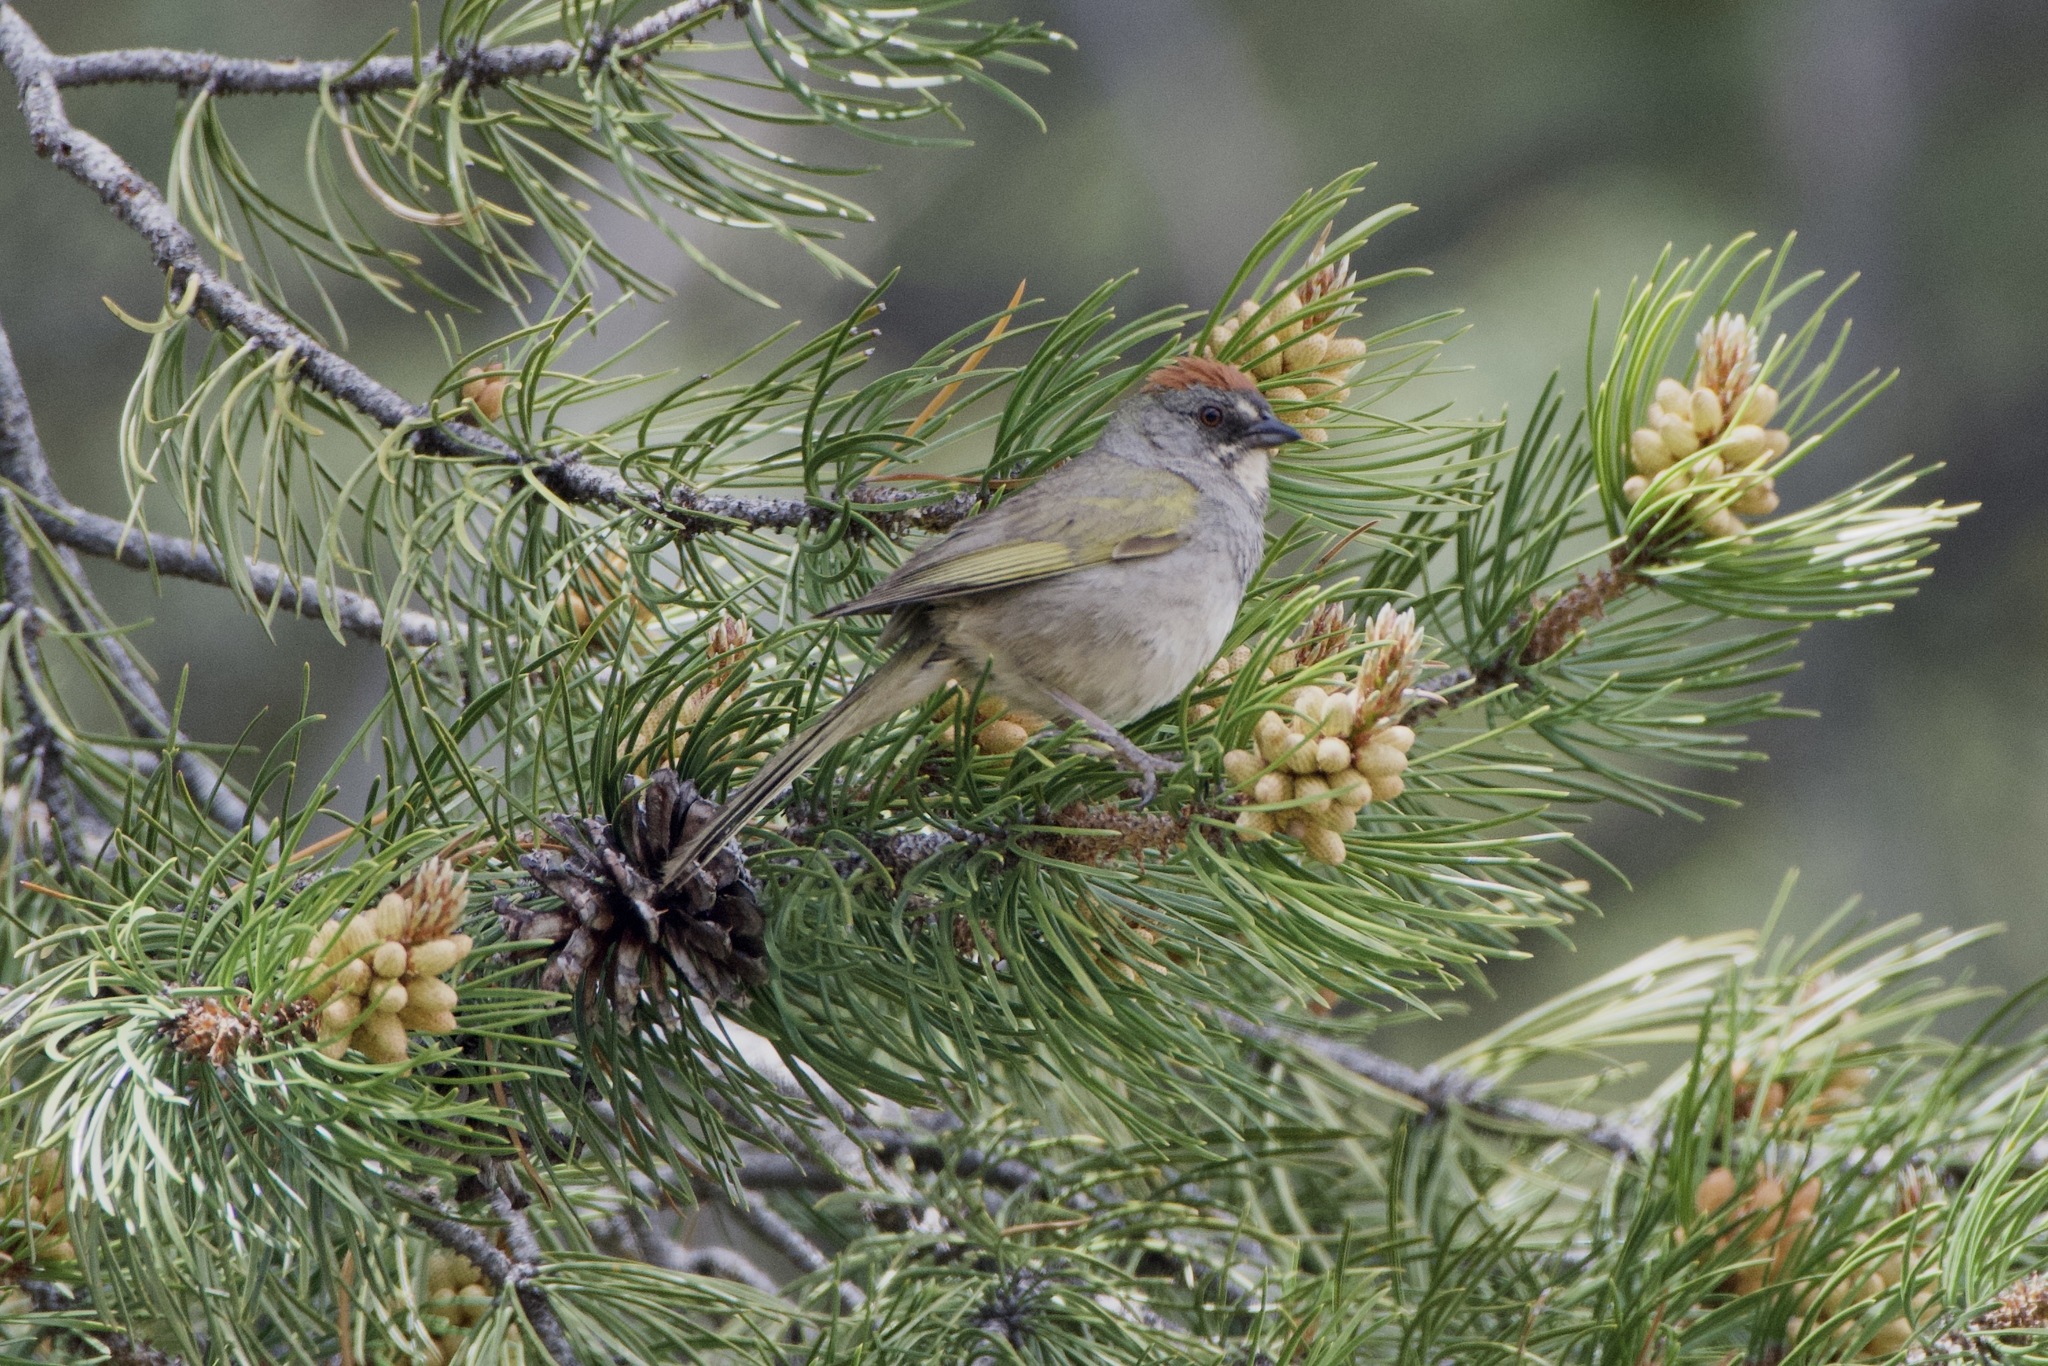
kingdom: Animalia
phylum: Chordata
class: Aves
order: Passeriformes
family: Passerellidae
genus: Pipilo
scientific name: Pipilo chlorurus
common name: Green-tailed towhee
